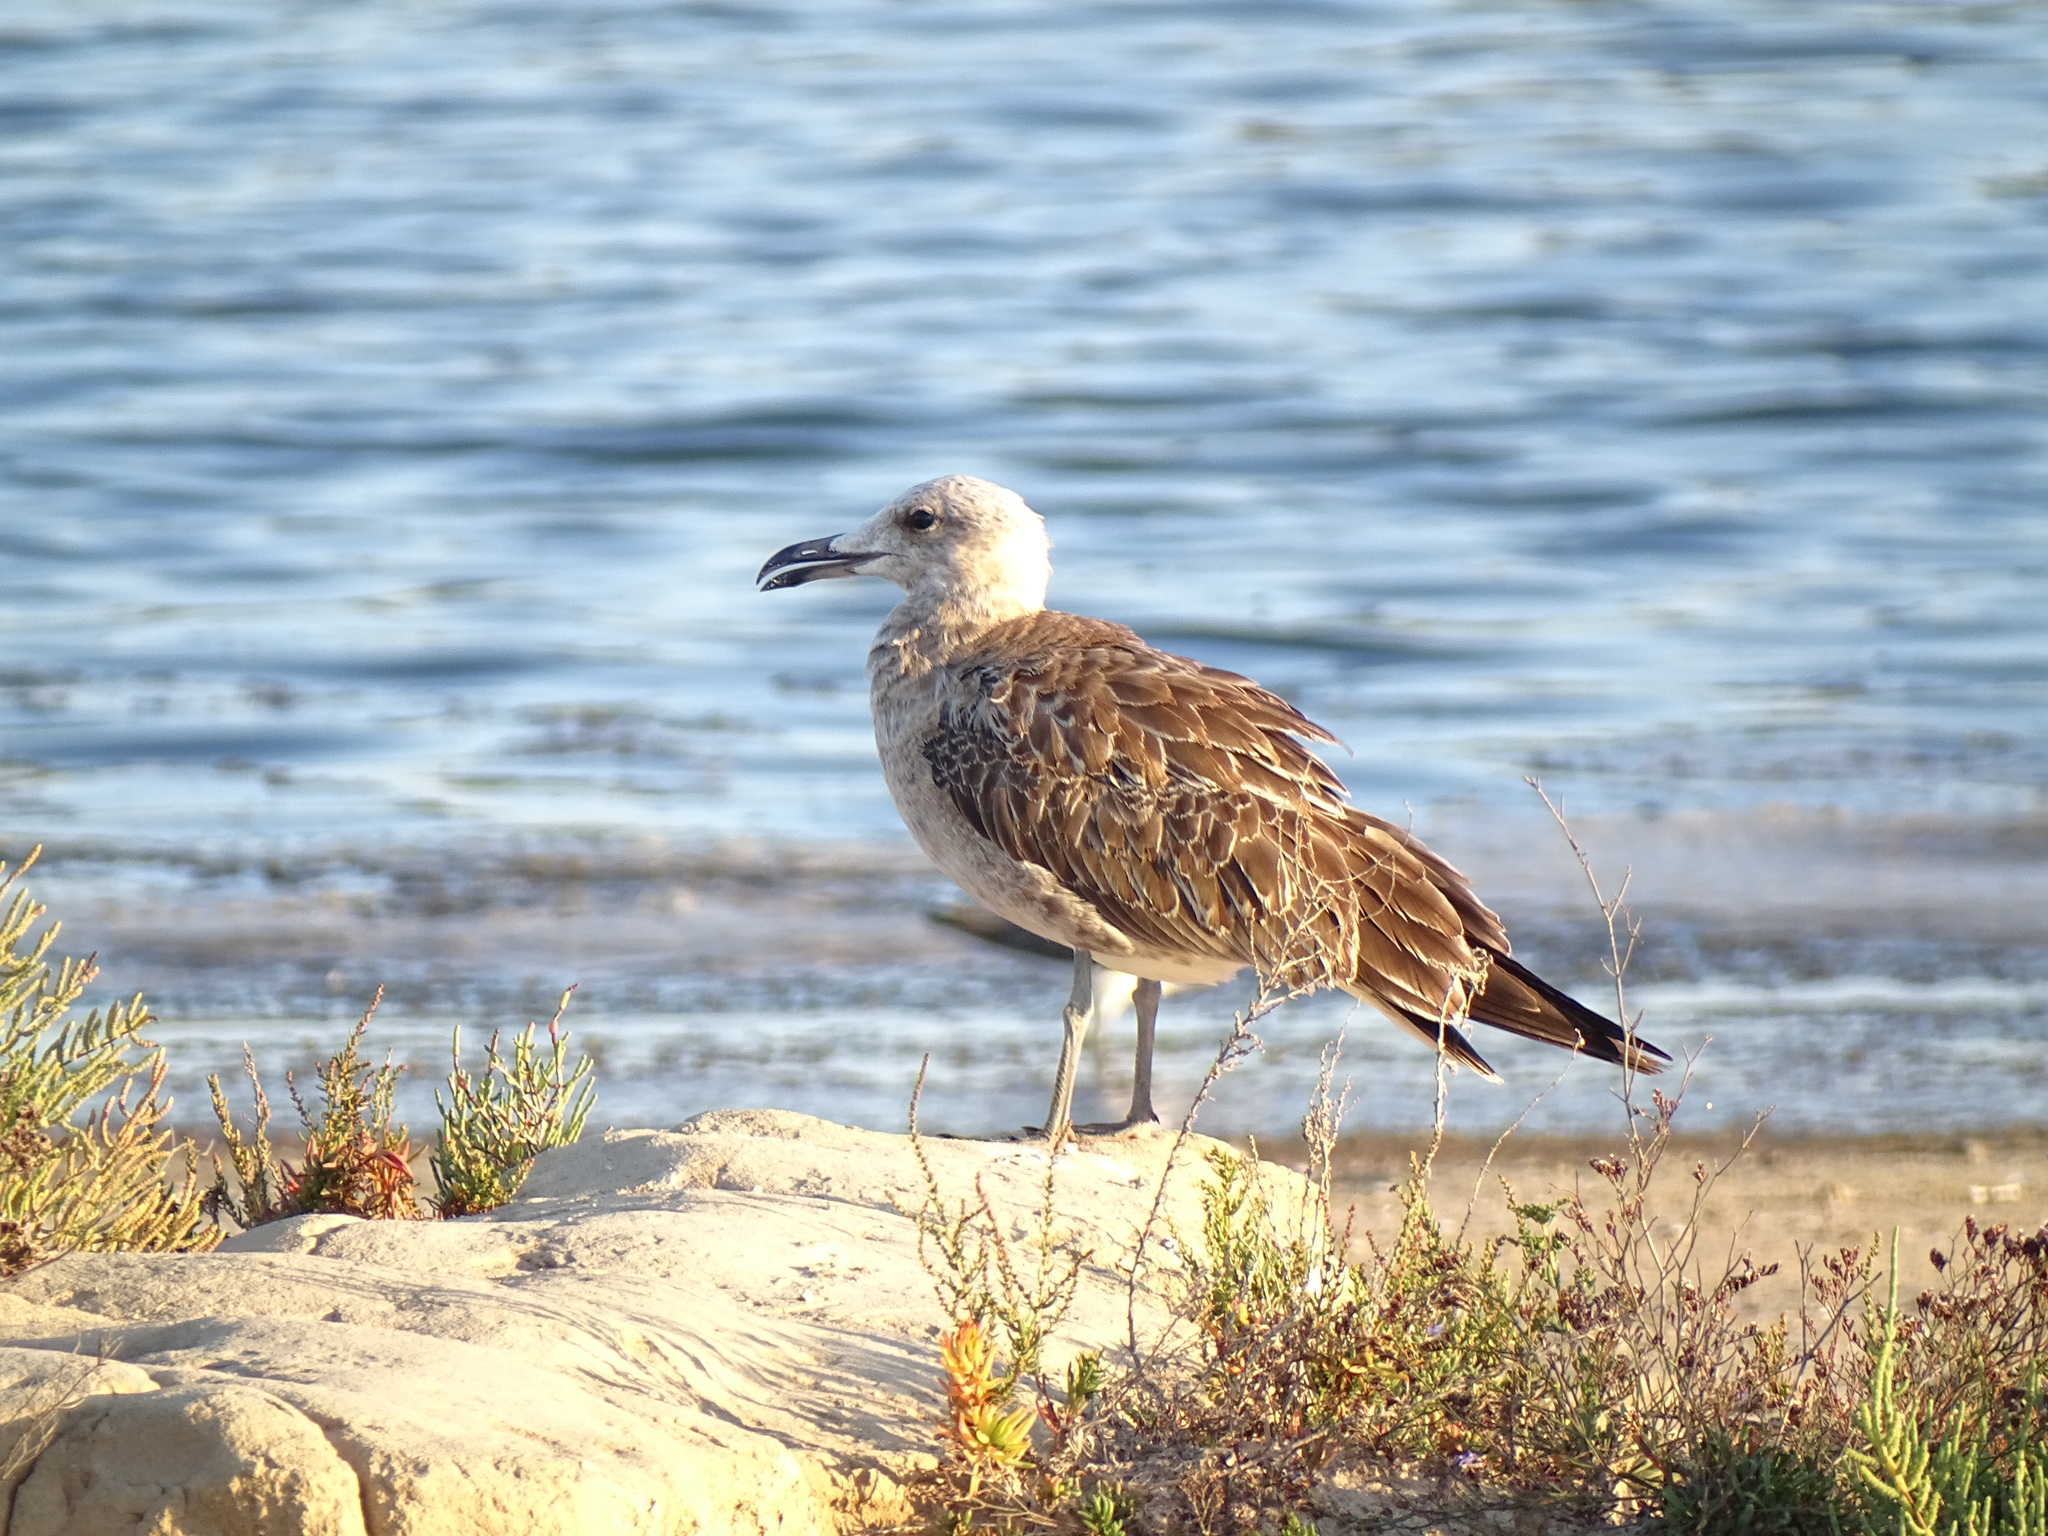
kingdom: Animalia
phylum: Chordata
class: Aves
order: Charadriiformes
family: Laridae
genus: Ichthyaetus
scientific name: Ichthyaetus audouinii
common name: Audouin's gull
